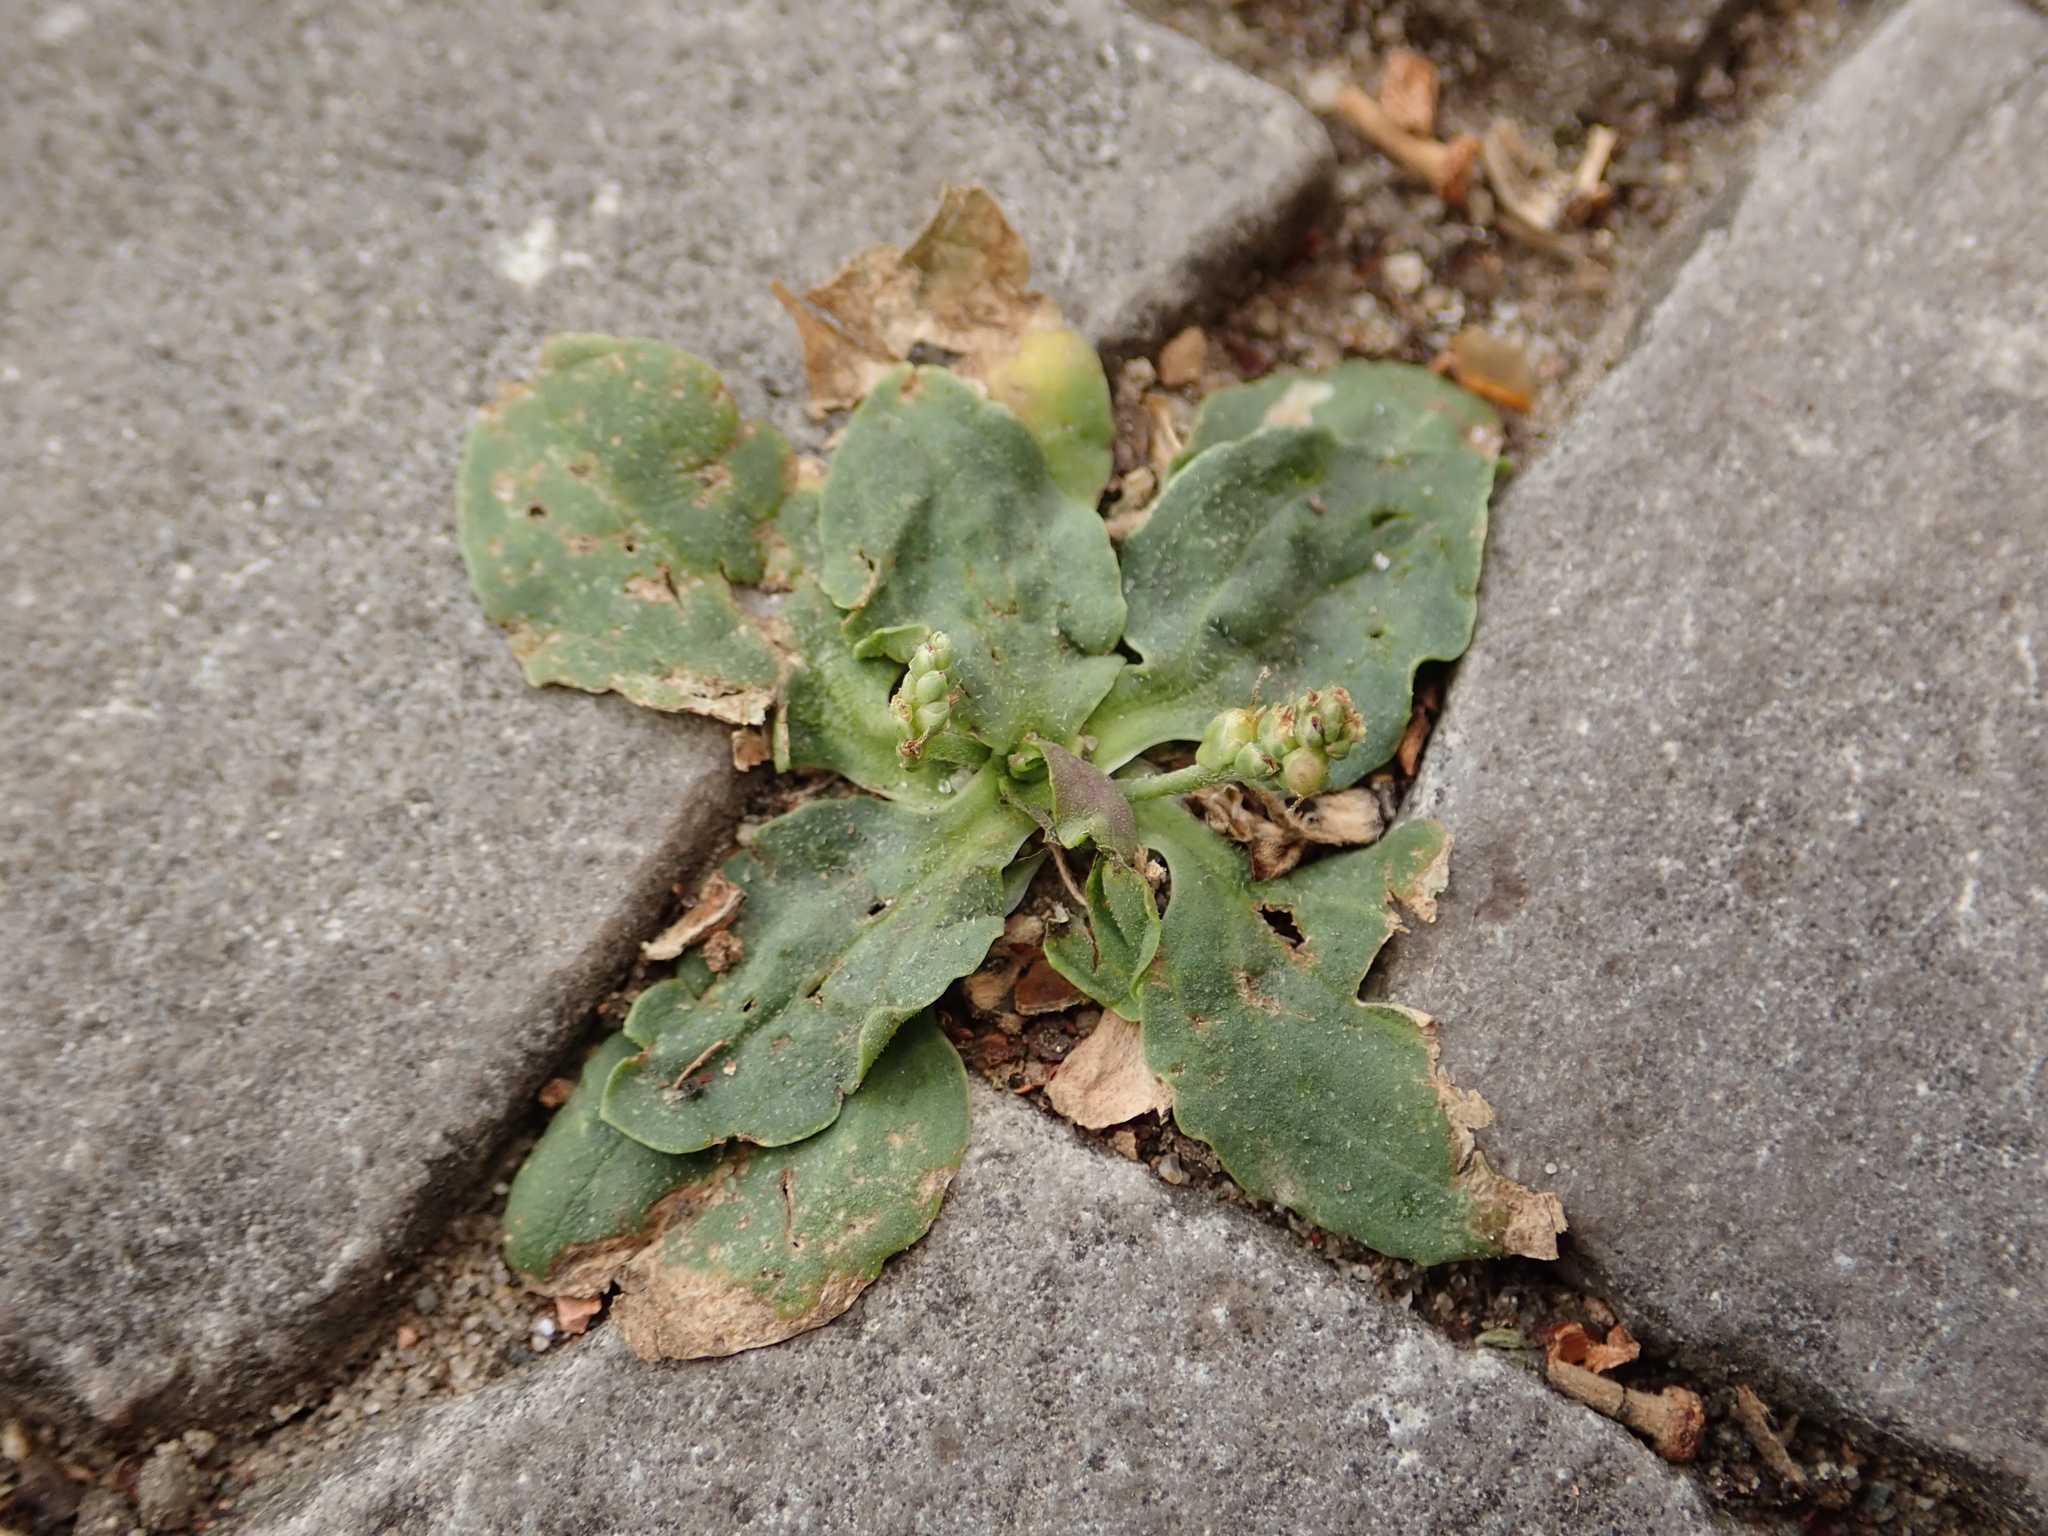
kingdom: Plantae
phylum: Tracheophyta
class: Magnoliopsida
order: Lamiales
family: Plantaginaceae
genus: Plantago
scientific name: Plantago major
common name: Common plantain
